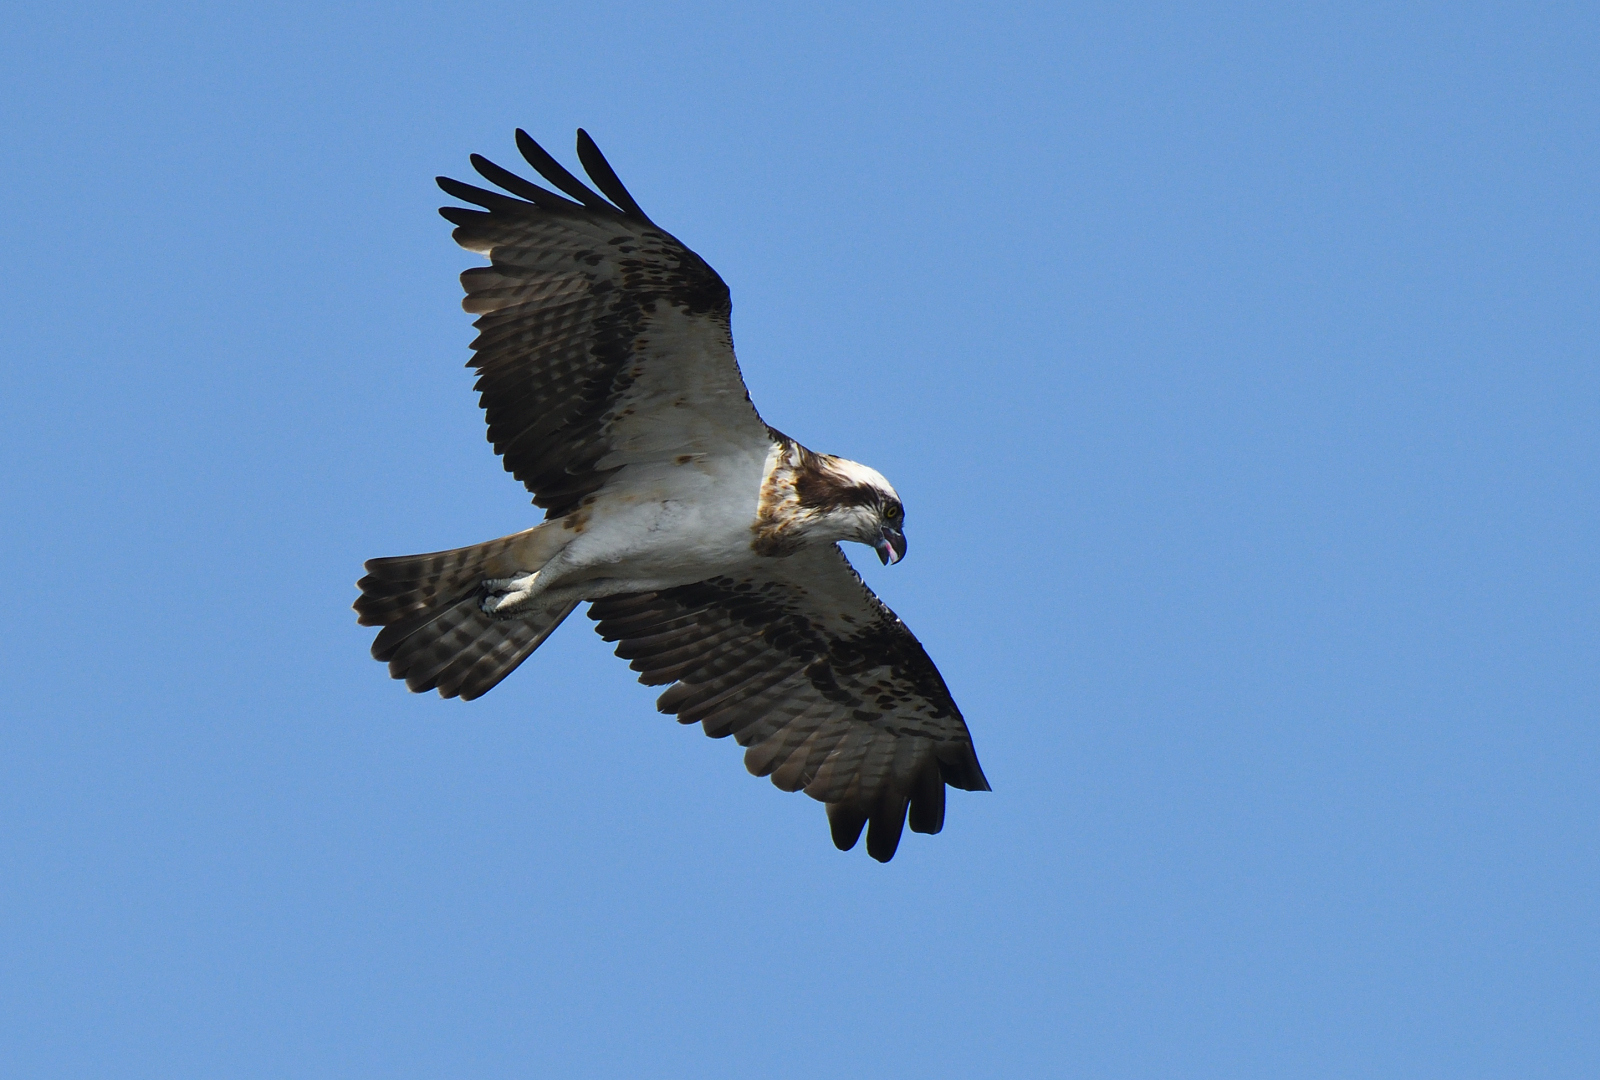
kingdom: Animalia
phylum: Chordata
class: Aves
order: Accipitriformes
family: Pandionidae
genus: Pandion
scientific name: Pandion haliaetus
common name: Osprey
